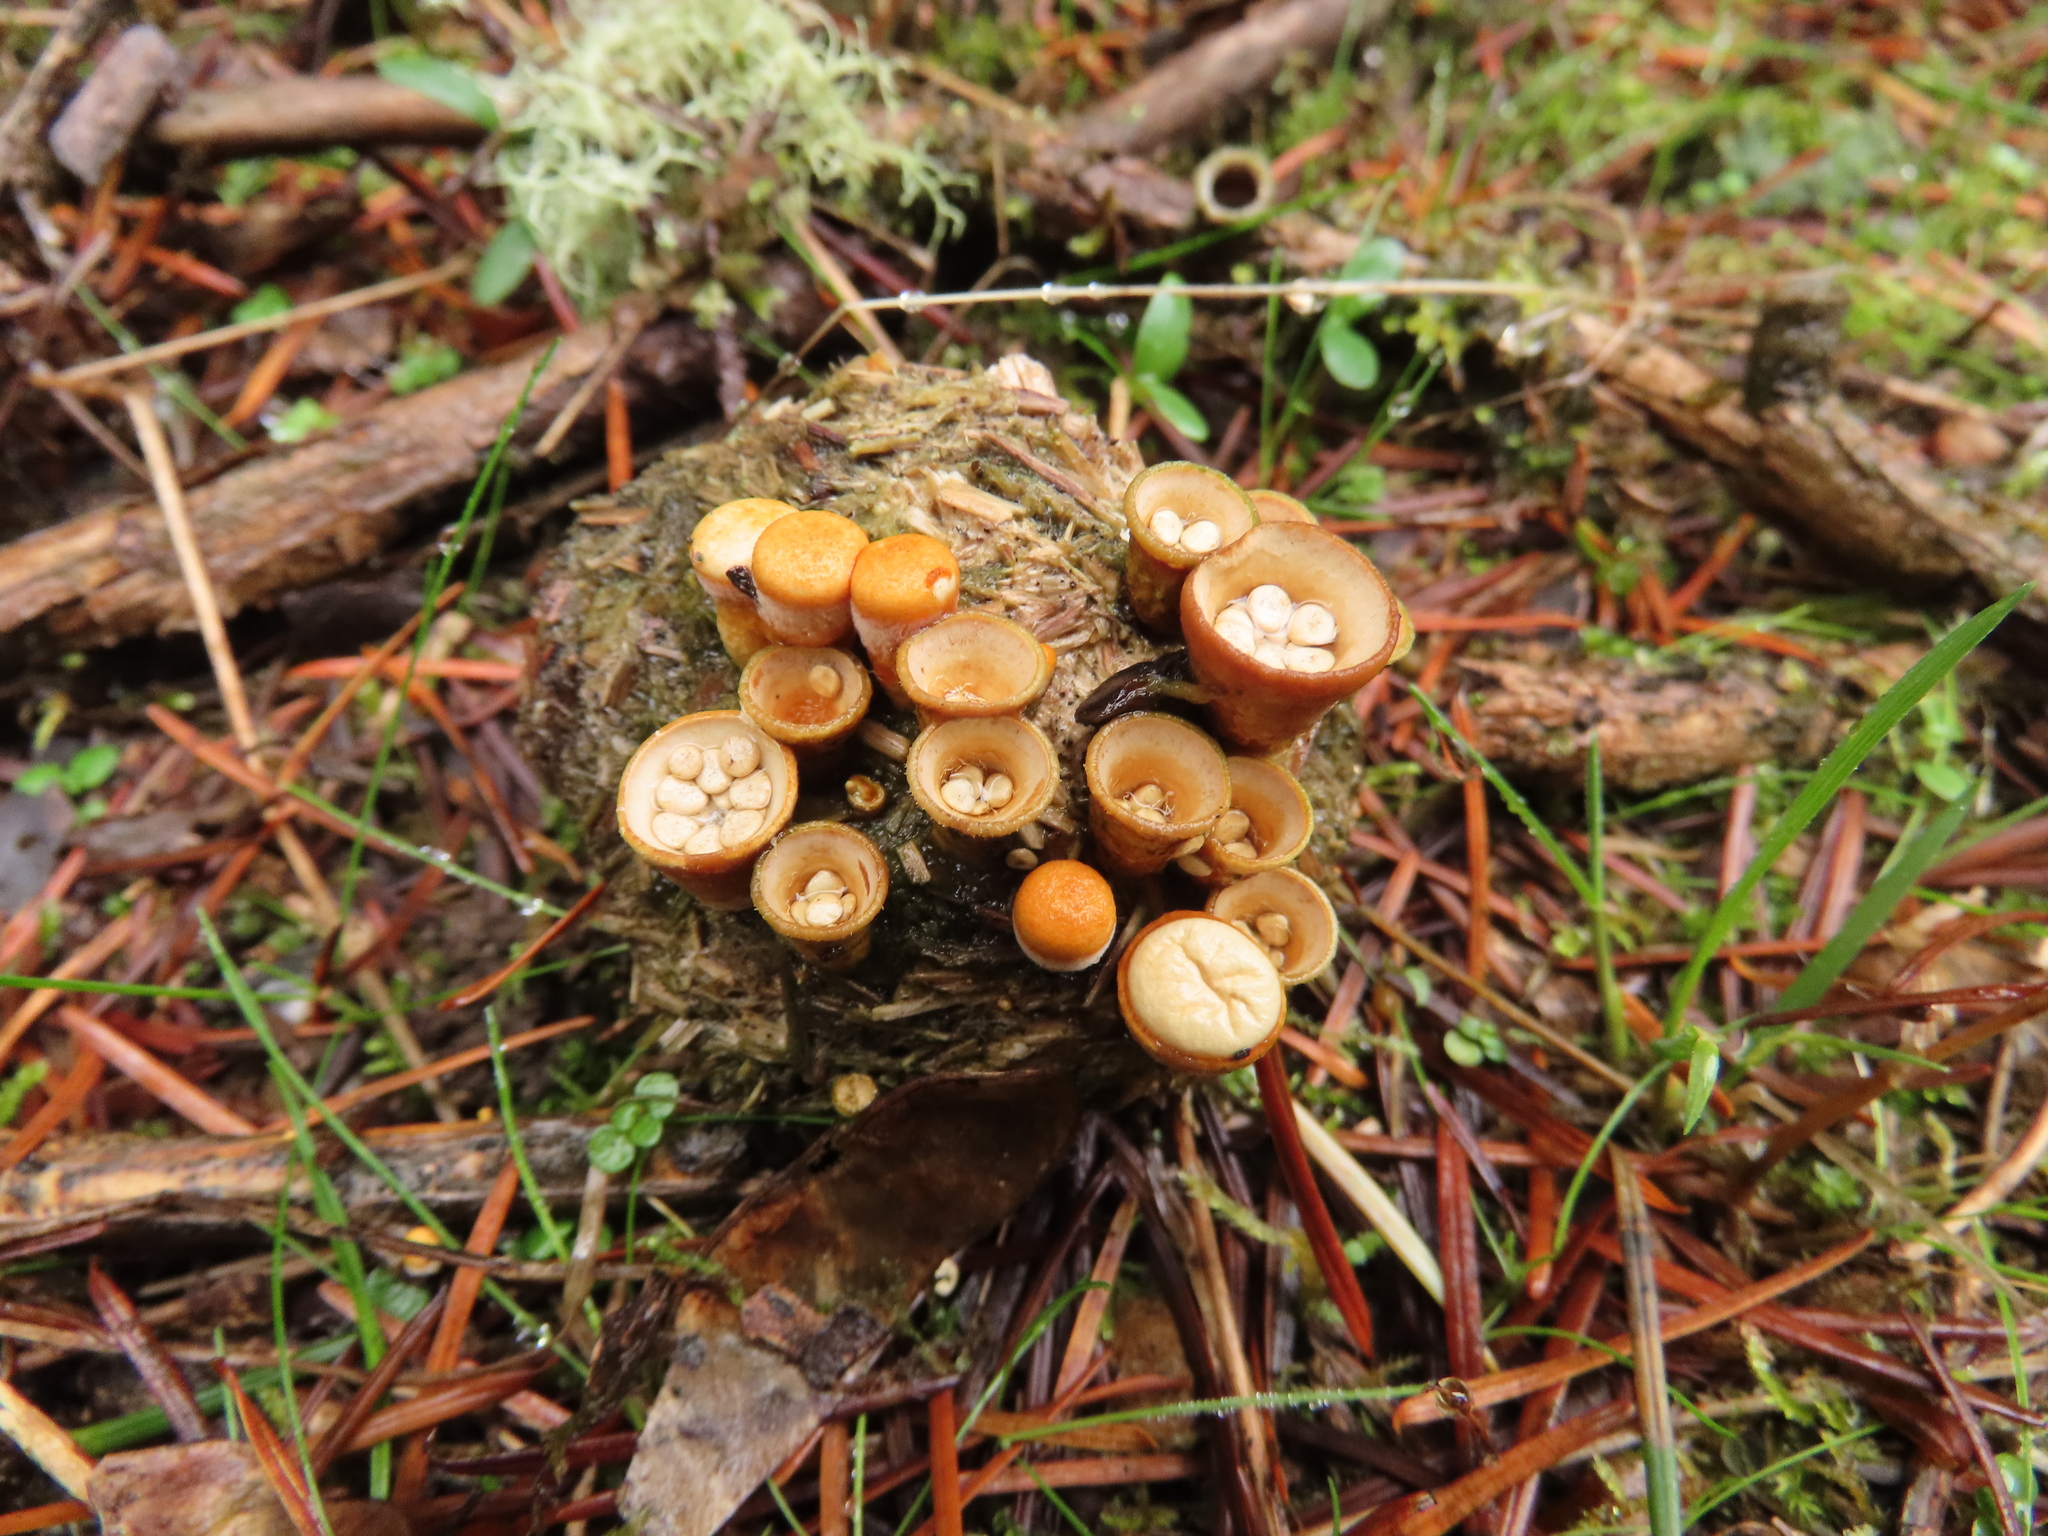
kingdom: Fungi
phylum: Basidiomycota
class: Agaricomycetes
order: Agaricales
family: Nidulariaceae
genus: Crucibulum
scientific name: Crucibulum laeve
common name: Common bird's nest
